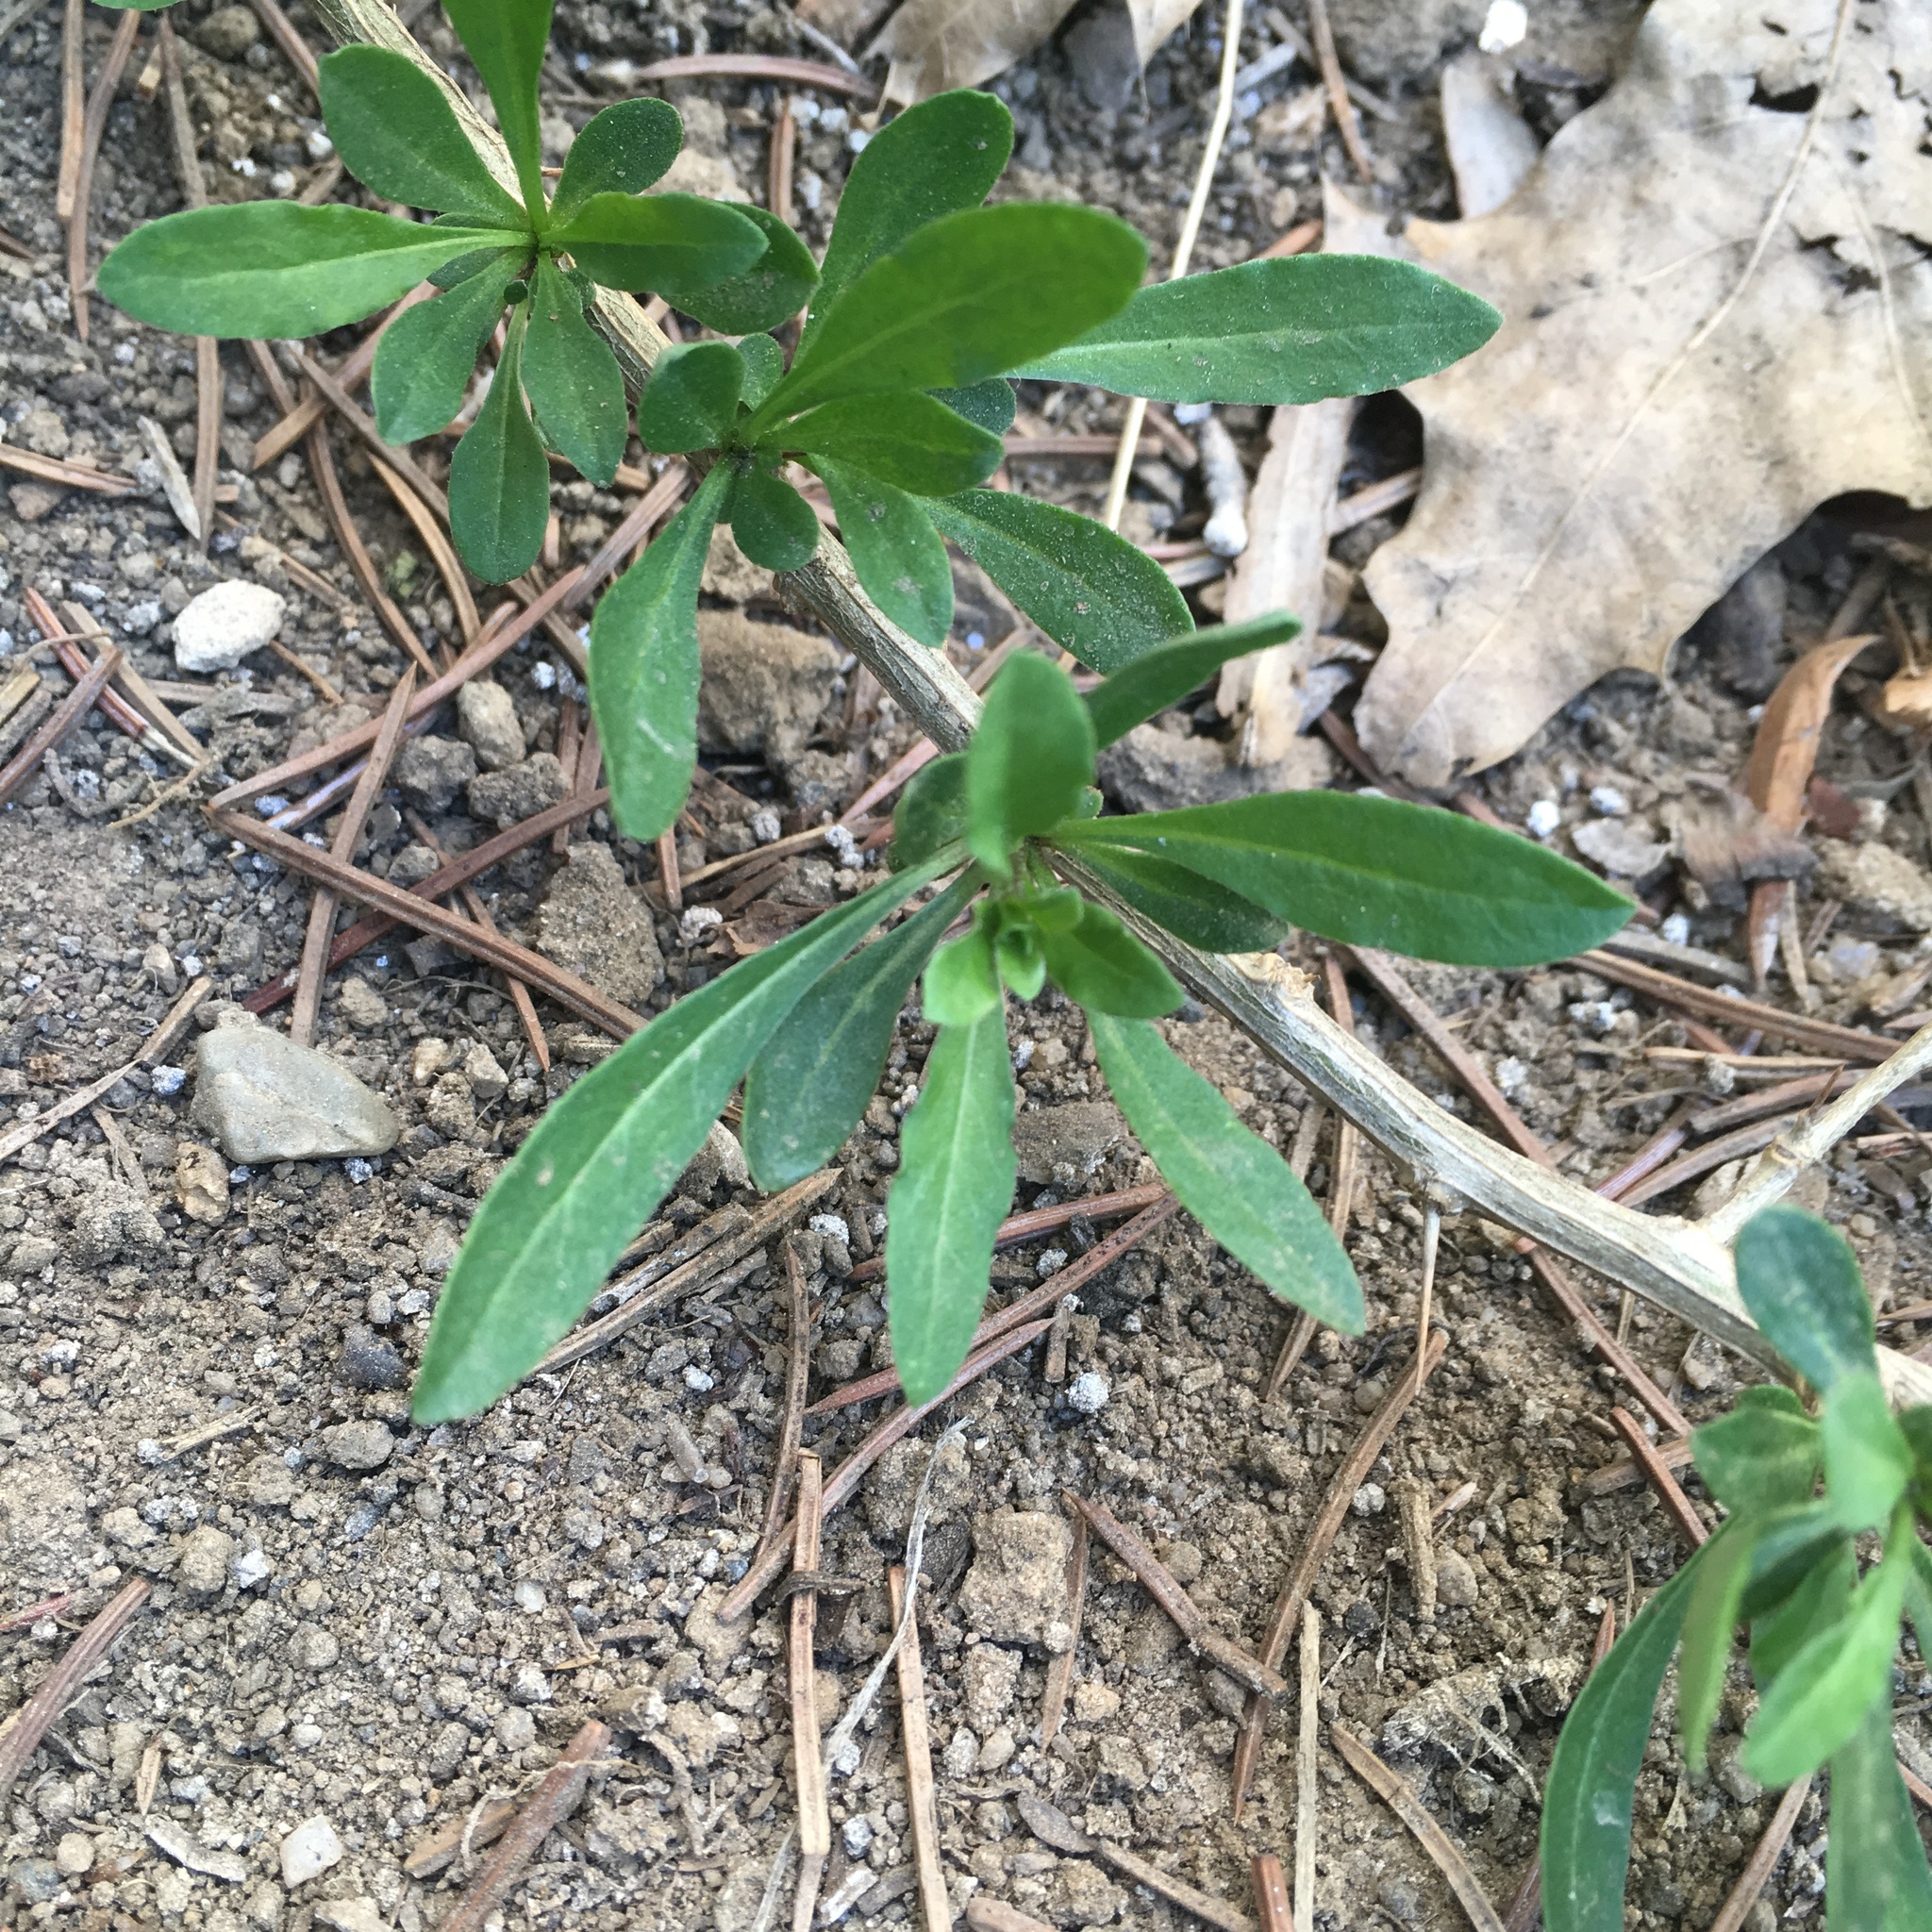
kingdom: Plantae
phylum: Tracheophyta
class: Magnoliopsida
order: Solanales
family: Solanaceae
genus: Lycium
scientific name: Lycium barbarum
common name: Duke of argyll's teaplant
